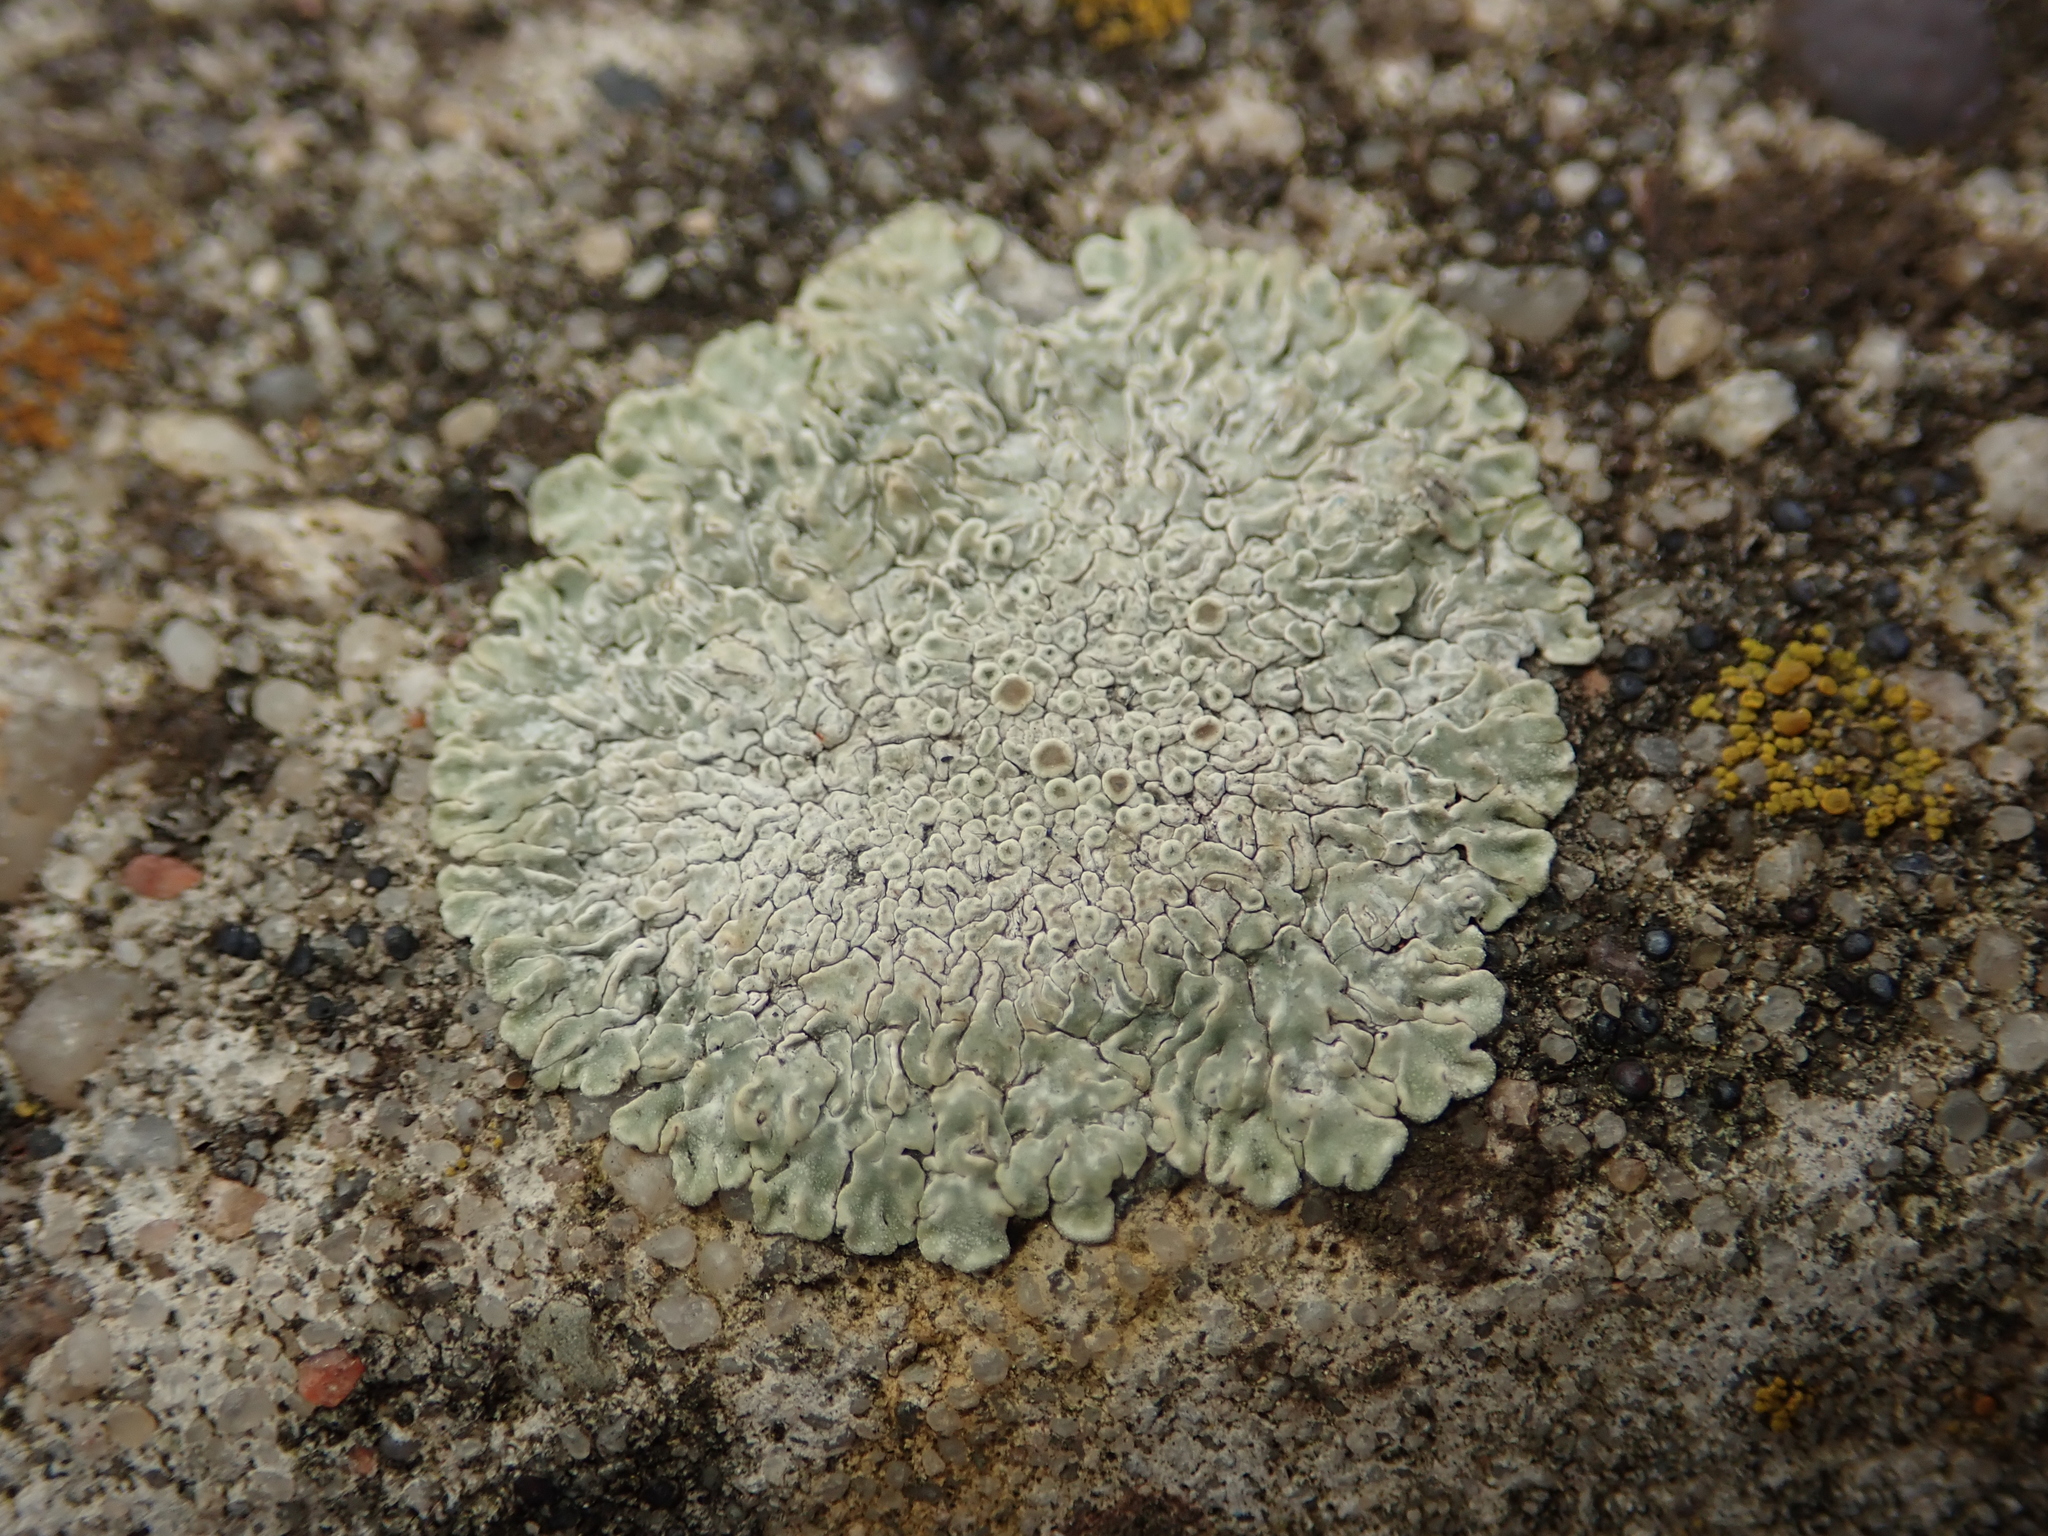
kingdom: Fungi
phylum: Ascomycota
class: Lecanoromycetes
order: Lecanorales
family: Lecanoraceae
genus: Protoparmeliopsis
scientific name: Protoparmeliopsis muralis
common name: Stonewall rim lichen
